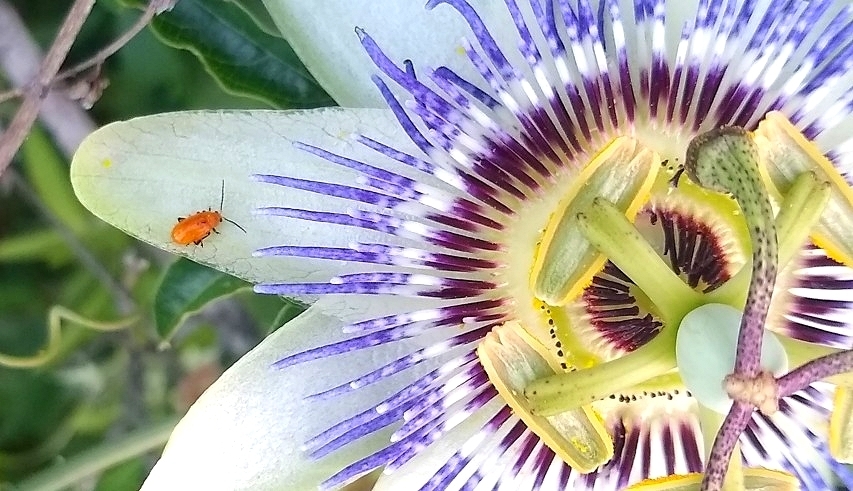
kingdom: Animalia
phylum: Arthropoda
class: Insecta
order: Coleoptera
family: Chrysomelidae
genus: Parchicola
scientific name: Parchicola
